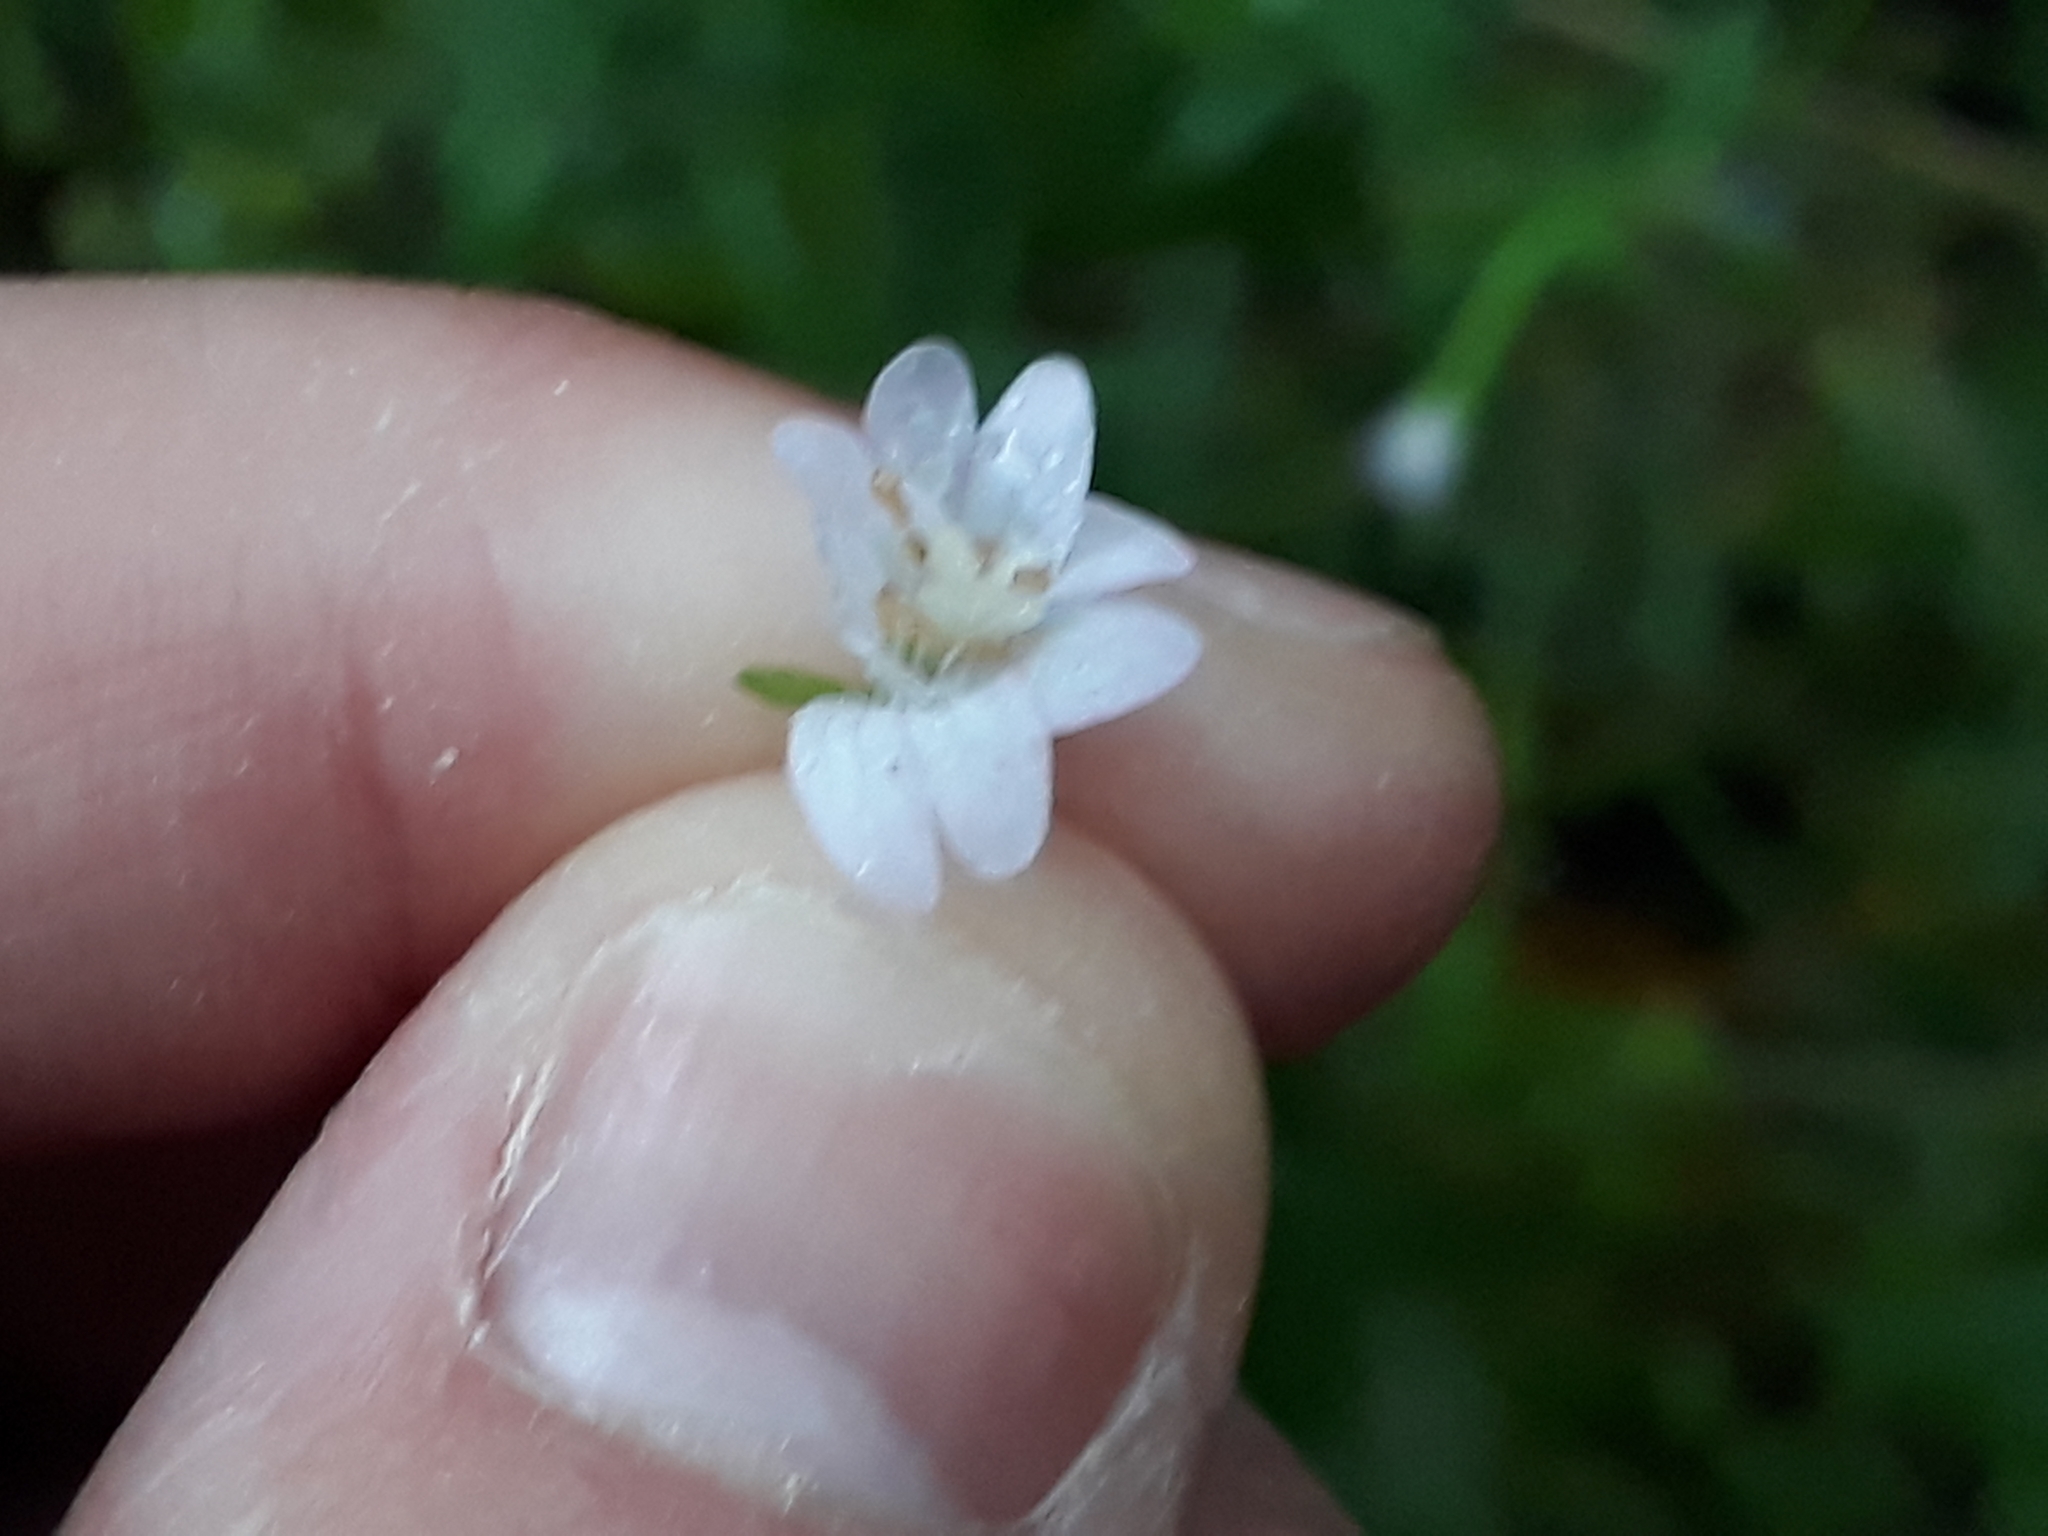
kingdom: Plantae
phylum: Tracheophyta
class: Magnoliopsida
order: Myrtales
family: Onagraceae
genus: Epilobium
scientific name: Epilobium montanum
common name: Broad-leaved willowherb
